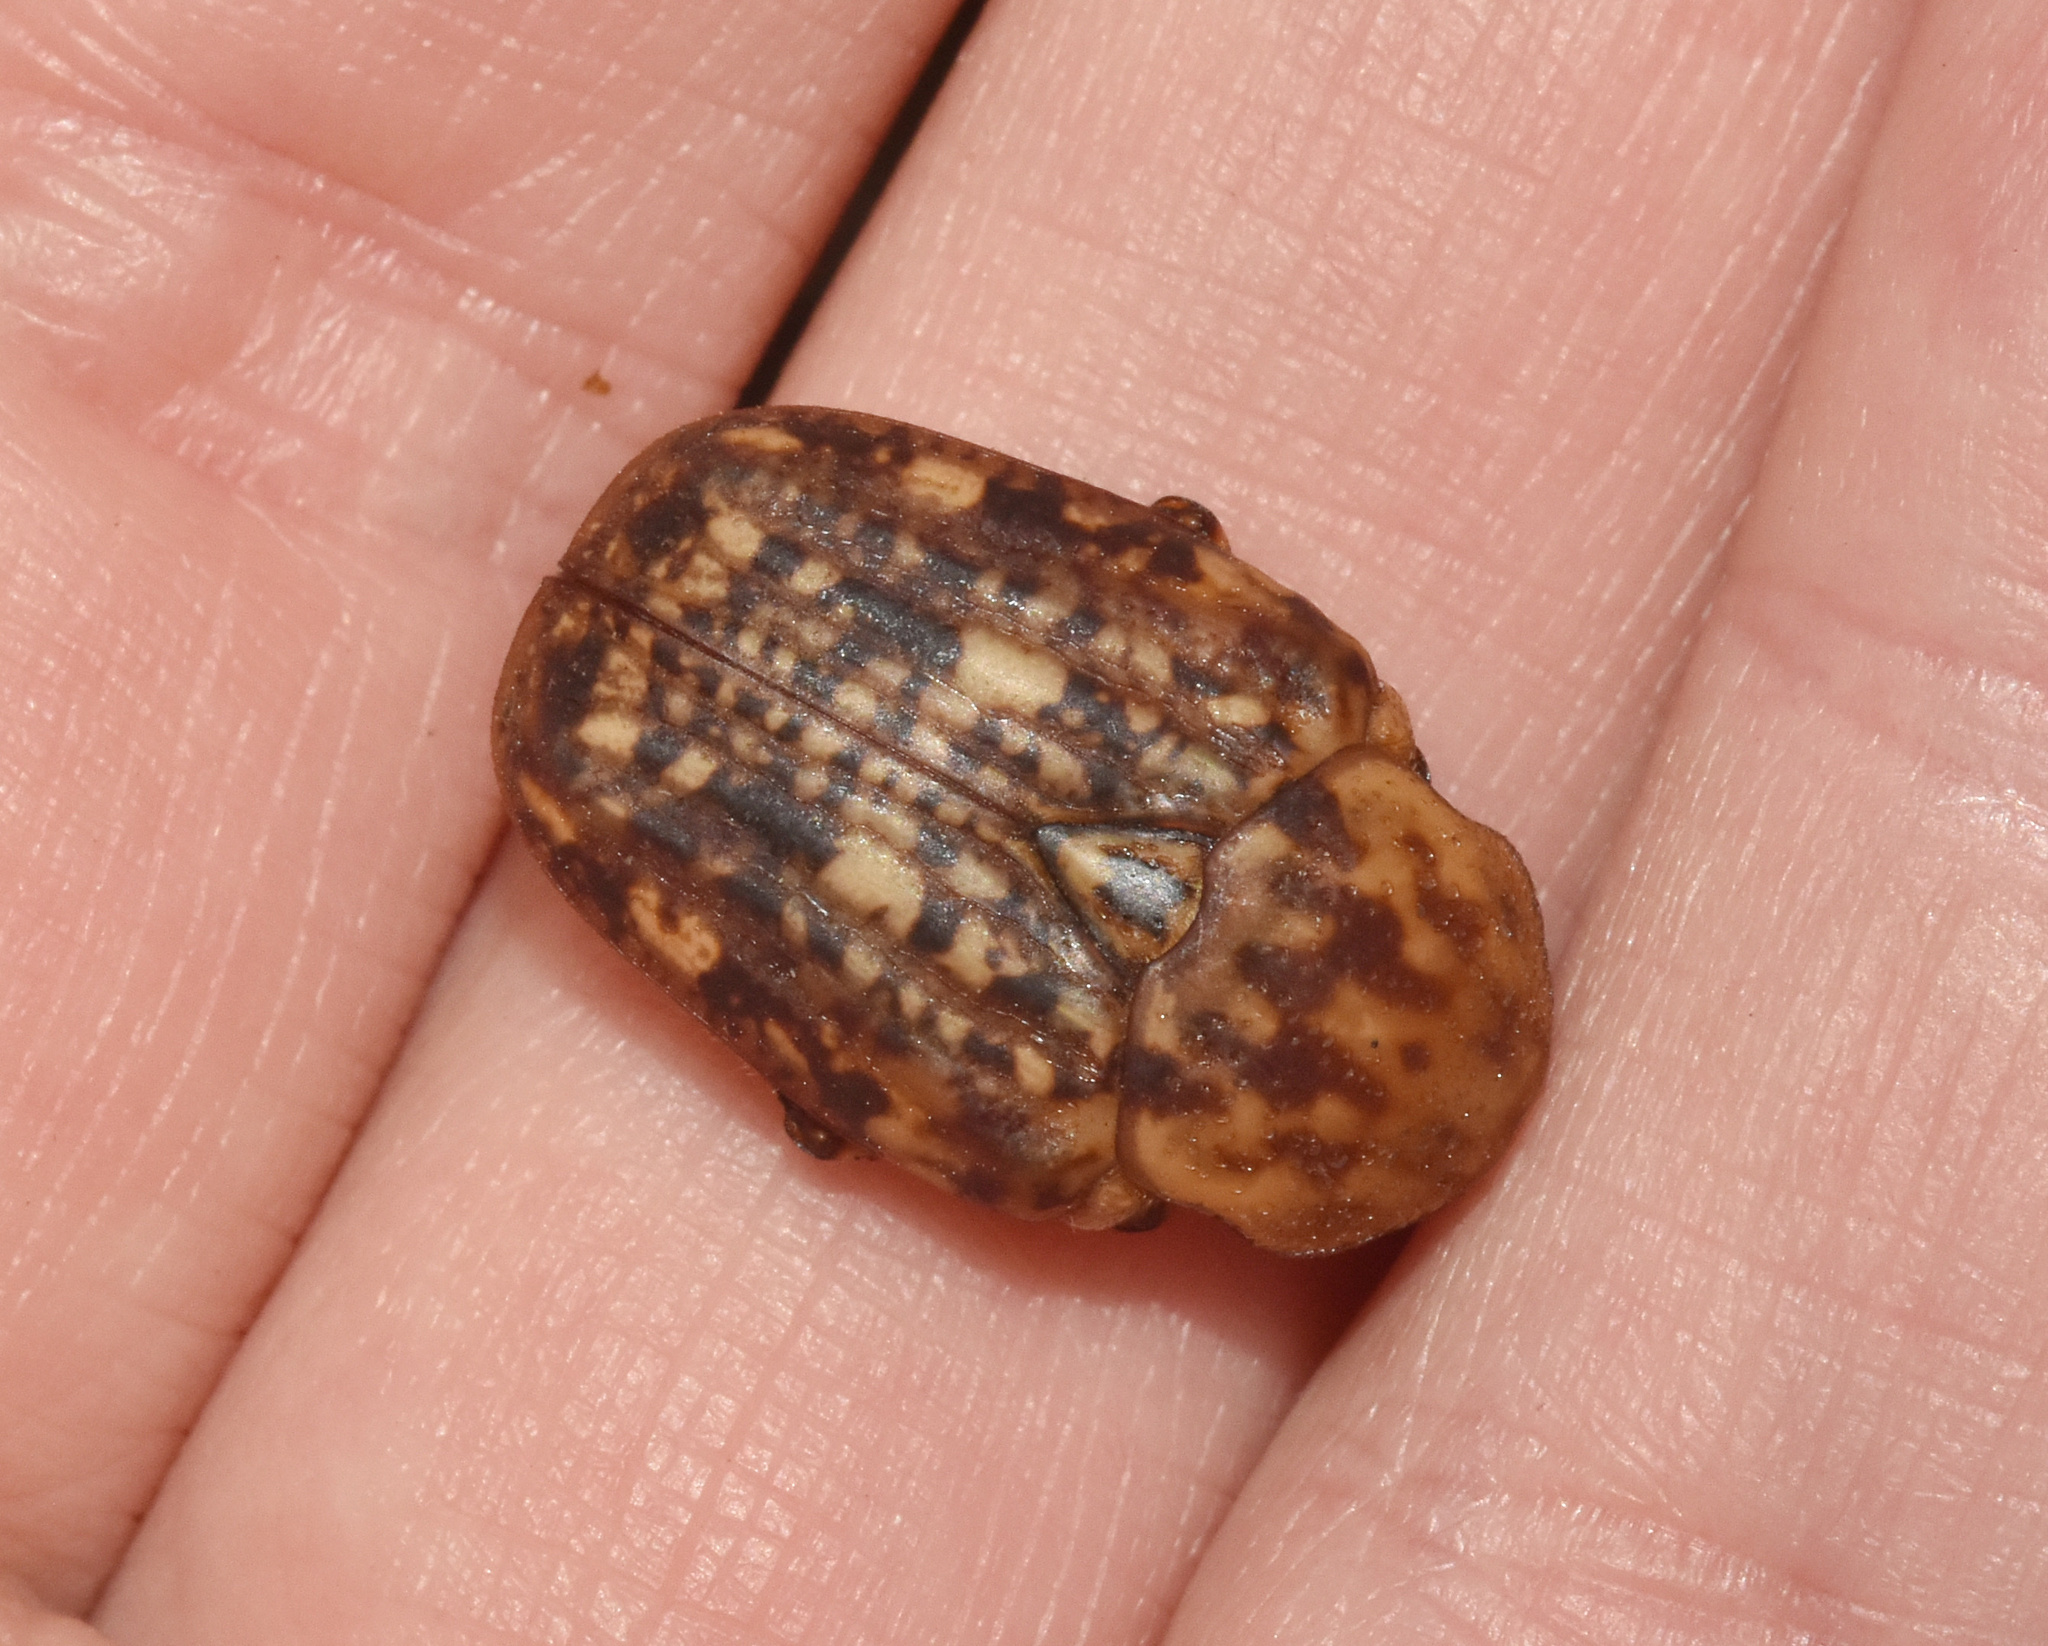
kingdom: Animalia
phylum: Arthropoda
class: Insecta
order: Coleoptera
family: Scarabaeidae
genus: Porphyronota
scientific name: Porphyronota hebraea
